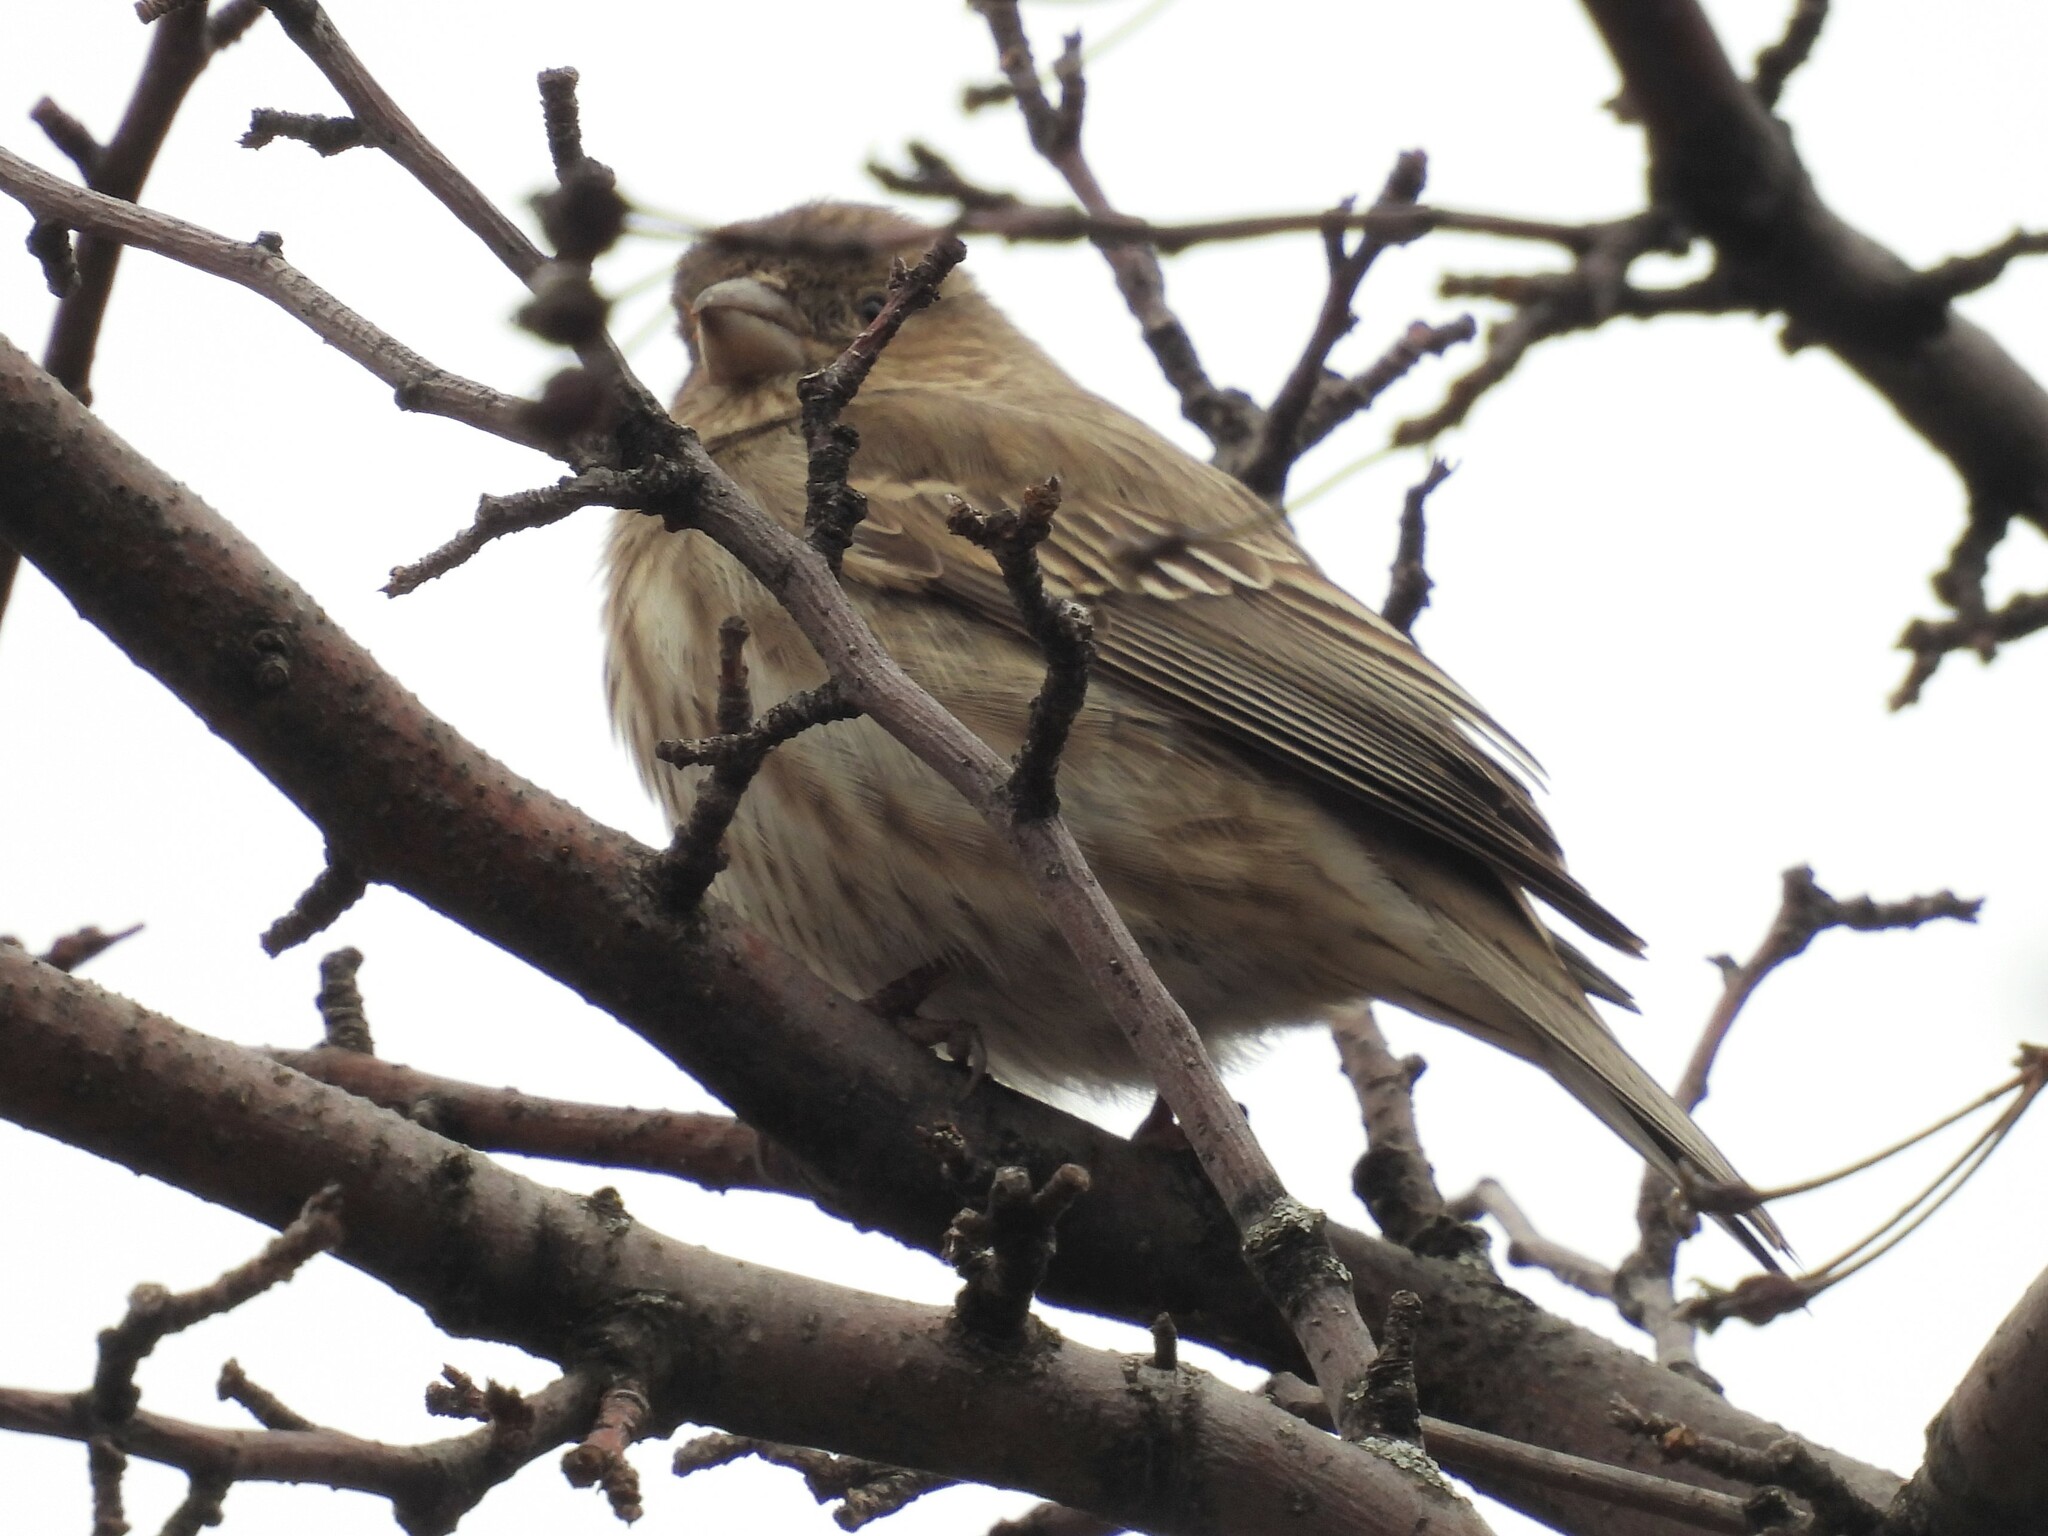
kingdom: Animalia
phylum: Chordata
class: Aves
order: Passeriformes
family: Fringillidae
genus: Haemorhous
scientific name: Haemorhous mexicanus
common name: House finch
